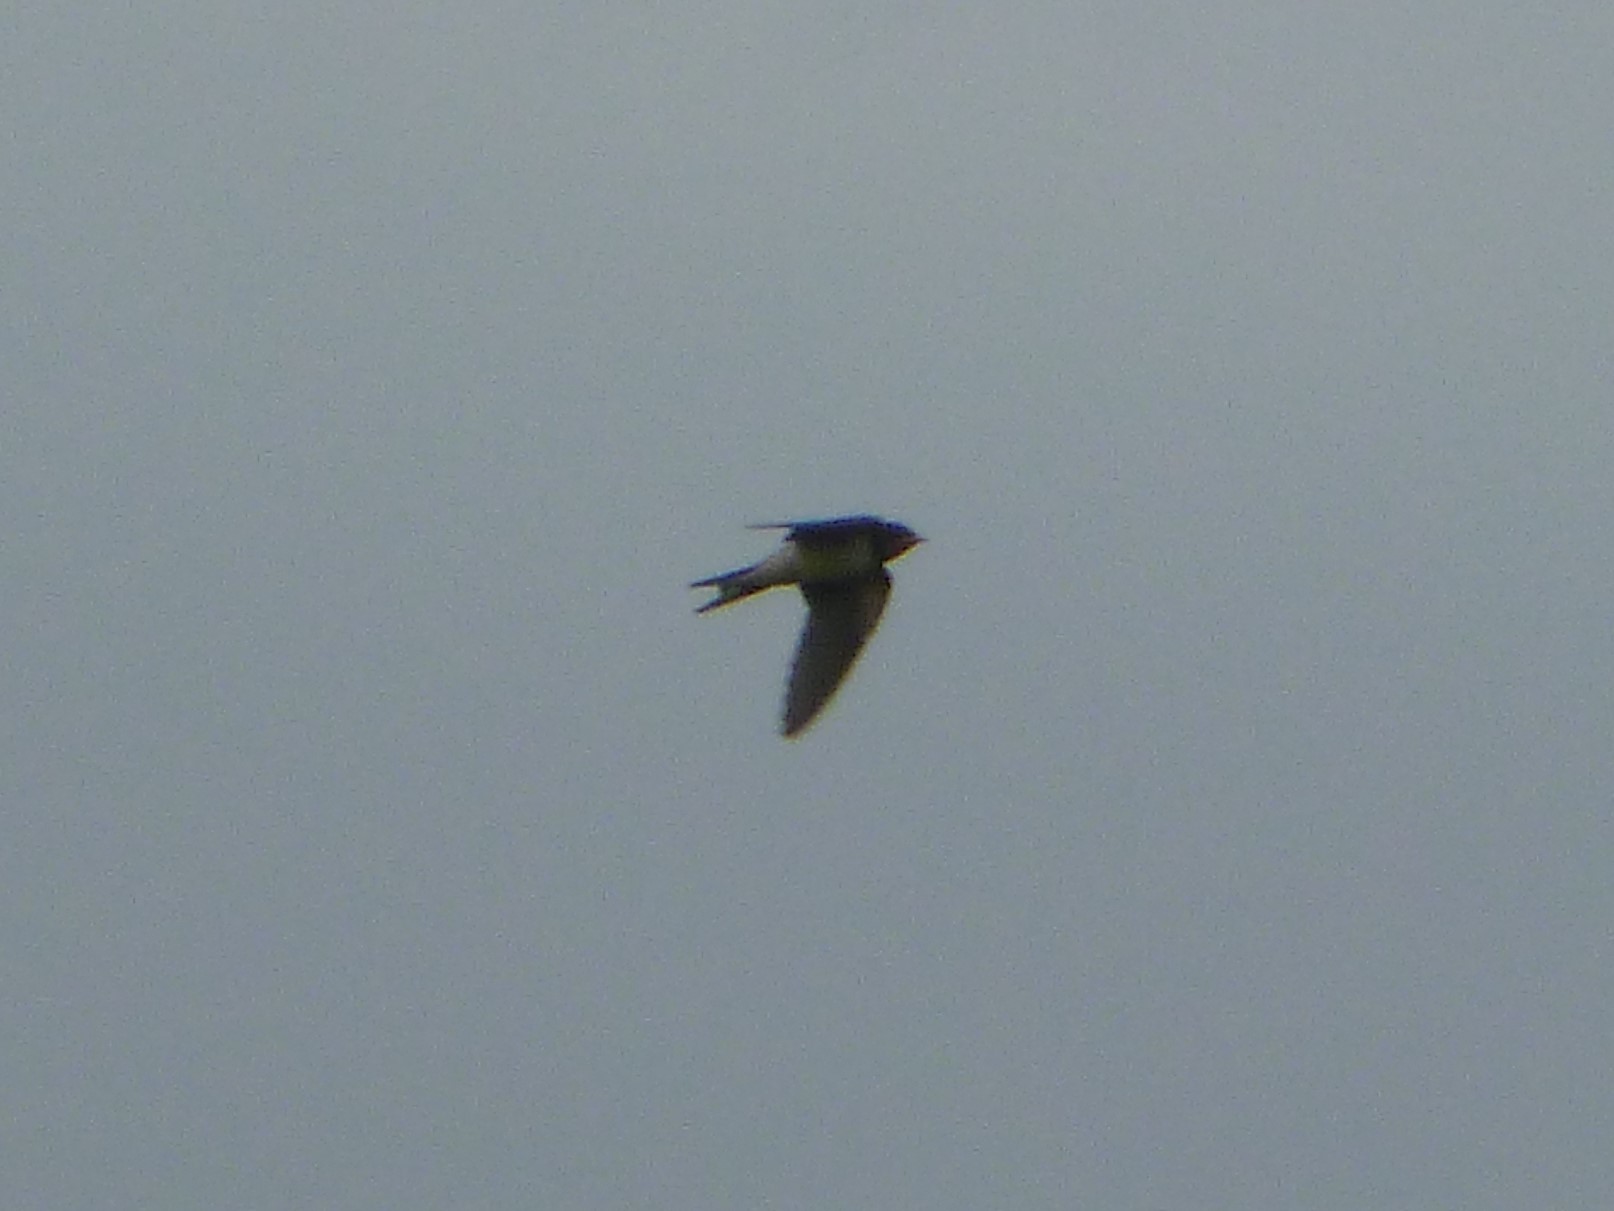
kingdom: Animalia
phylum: Chordata
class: Aves
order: Passeriformes
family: Hirundinidae
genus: Hirundo
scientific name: Hirundo rustica
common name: Barn swallow
